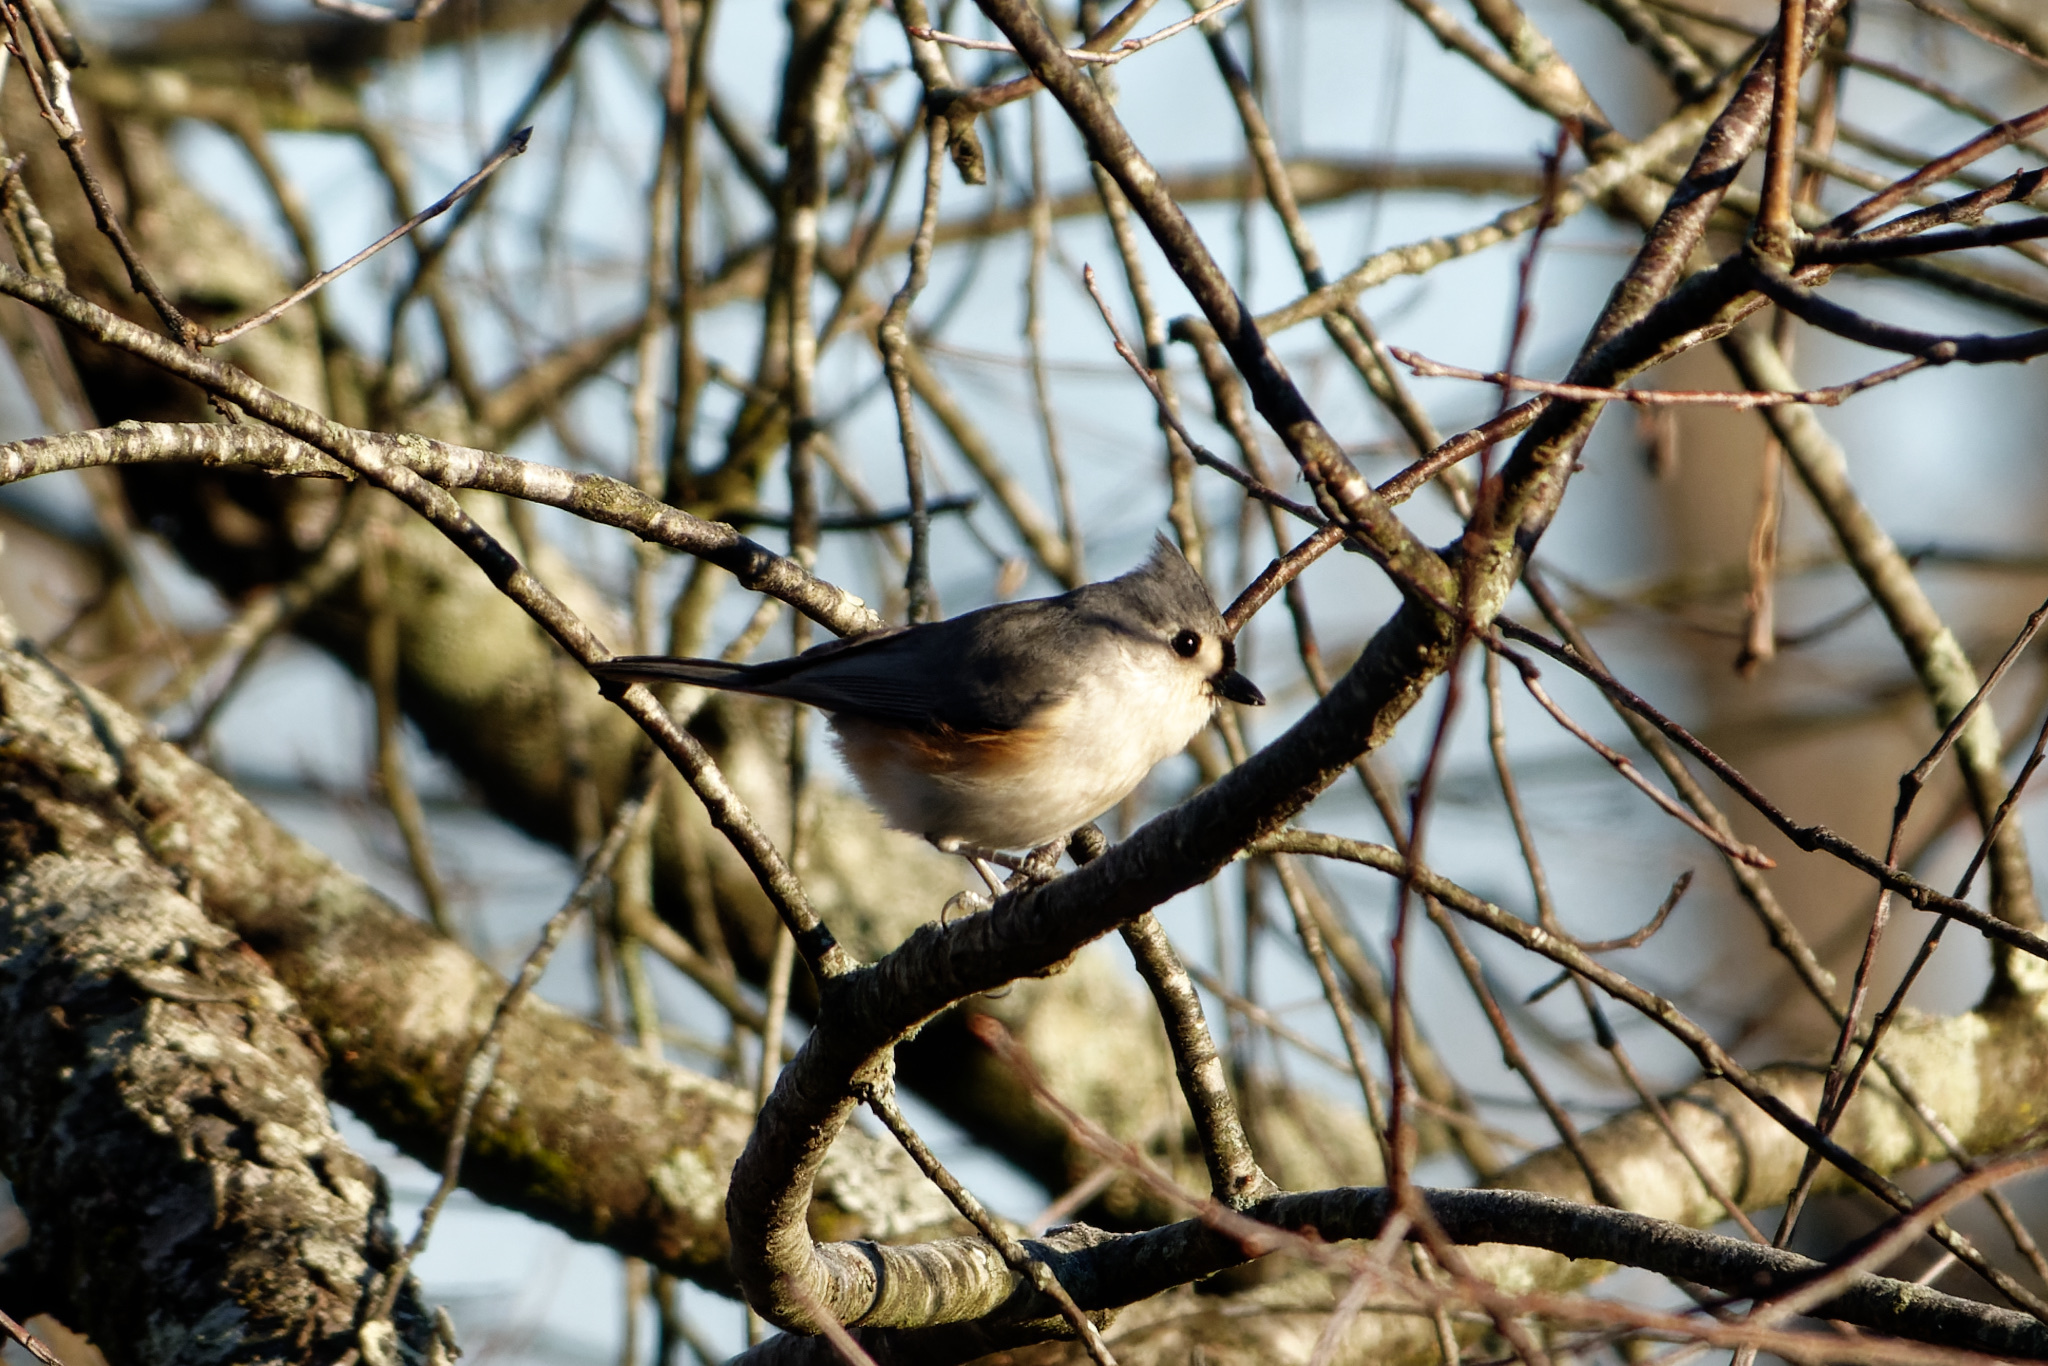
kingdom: Animalia
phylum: Chordata
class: Aves
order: Passeriformes
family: Paridae
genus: Baeolophus
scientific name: Baeolophus bicolor
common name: Tufted titmouse
